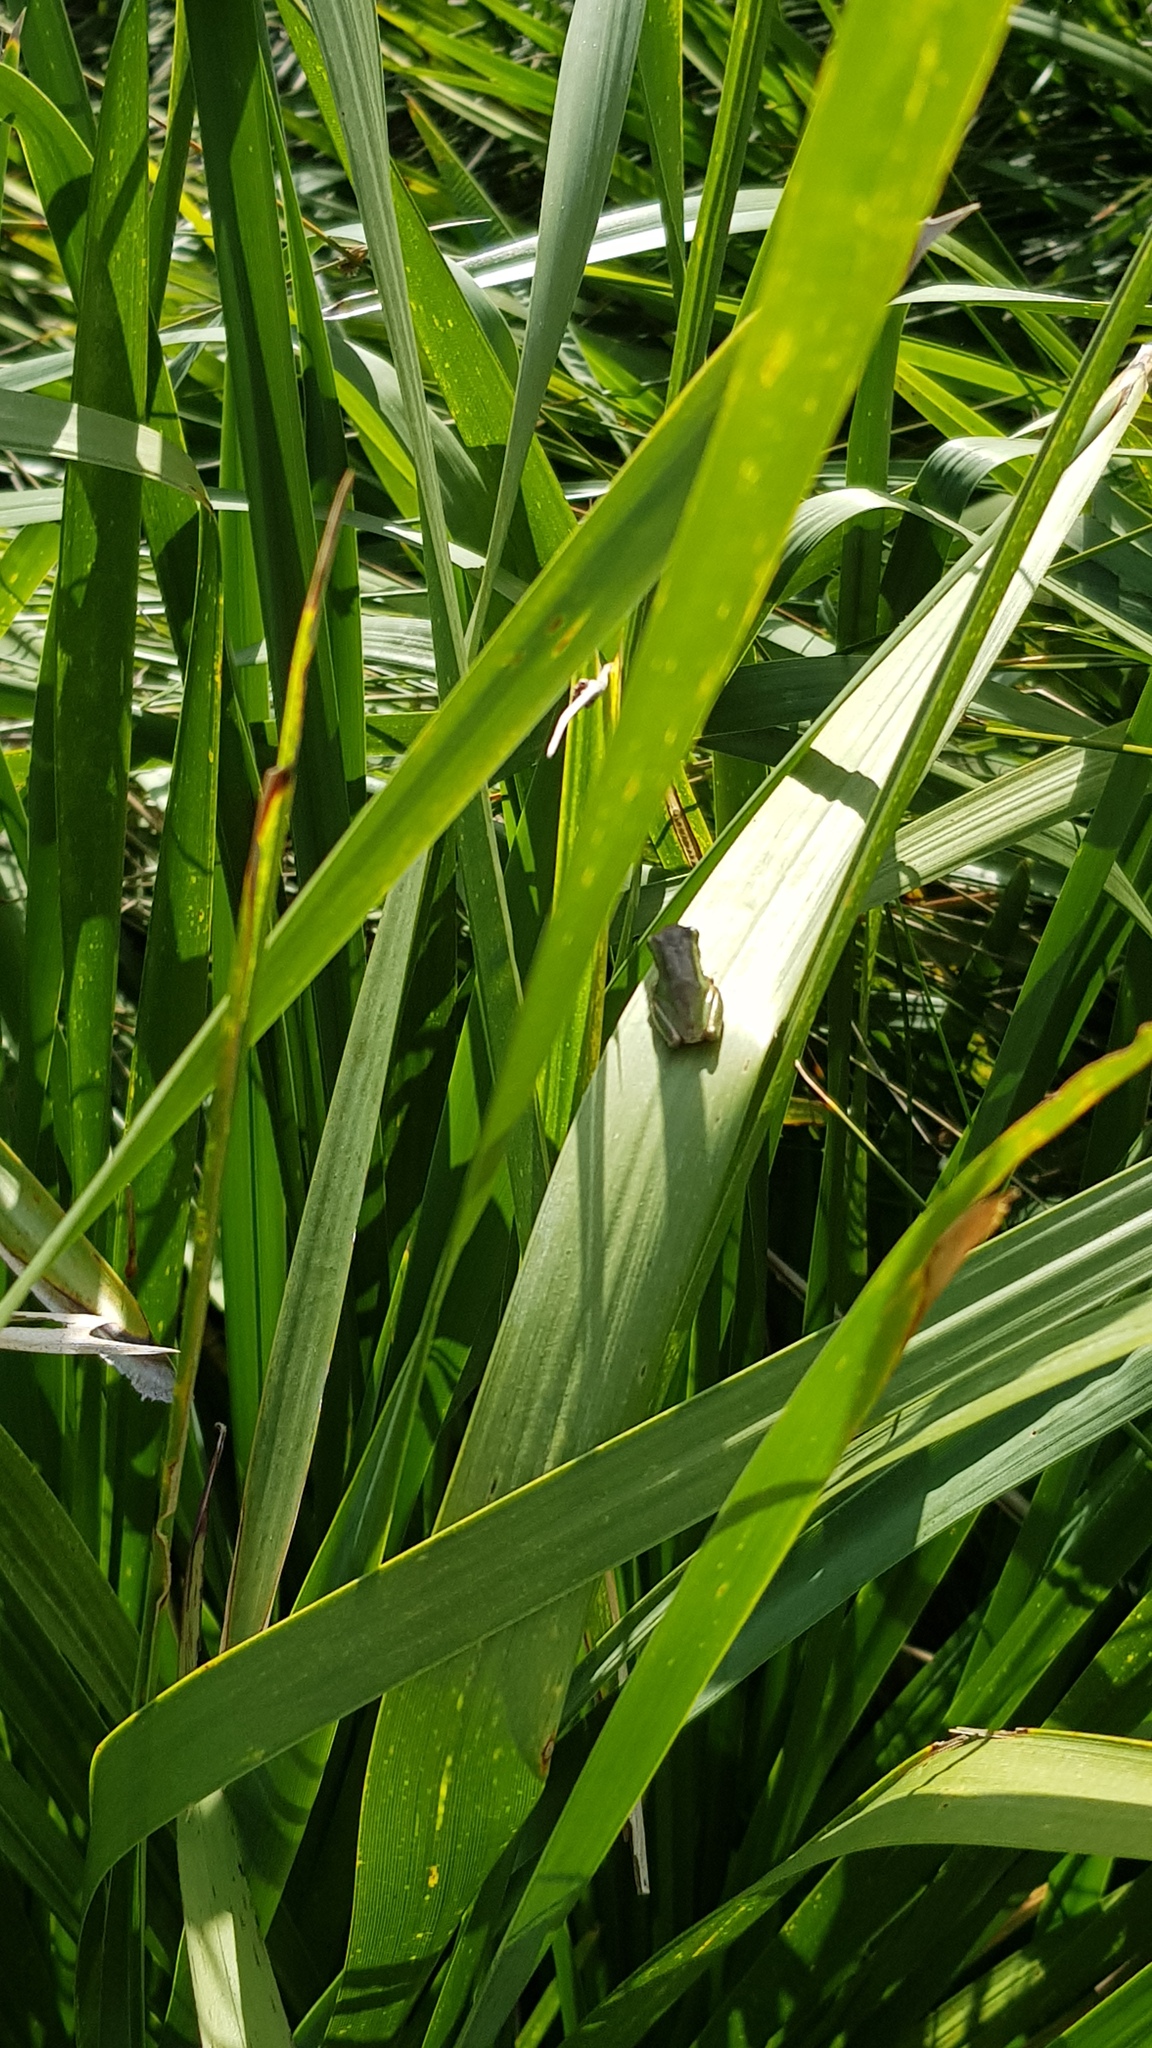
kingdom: Animalia
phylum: Chordata
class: Amphibia
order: Anura
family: Pelodryadidae
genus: Litoria
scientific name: Litoria fallax
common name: Eastern dwarf treefrog
